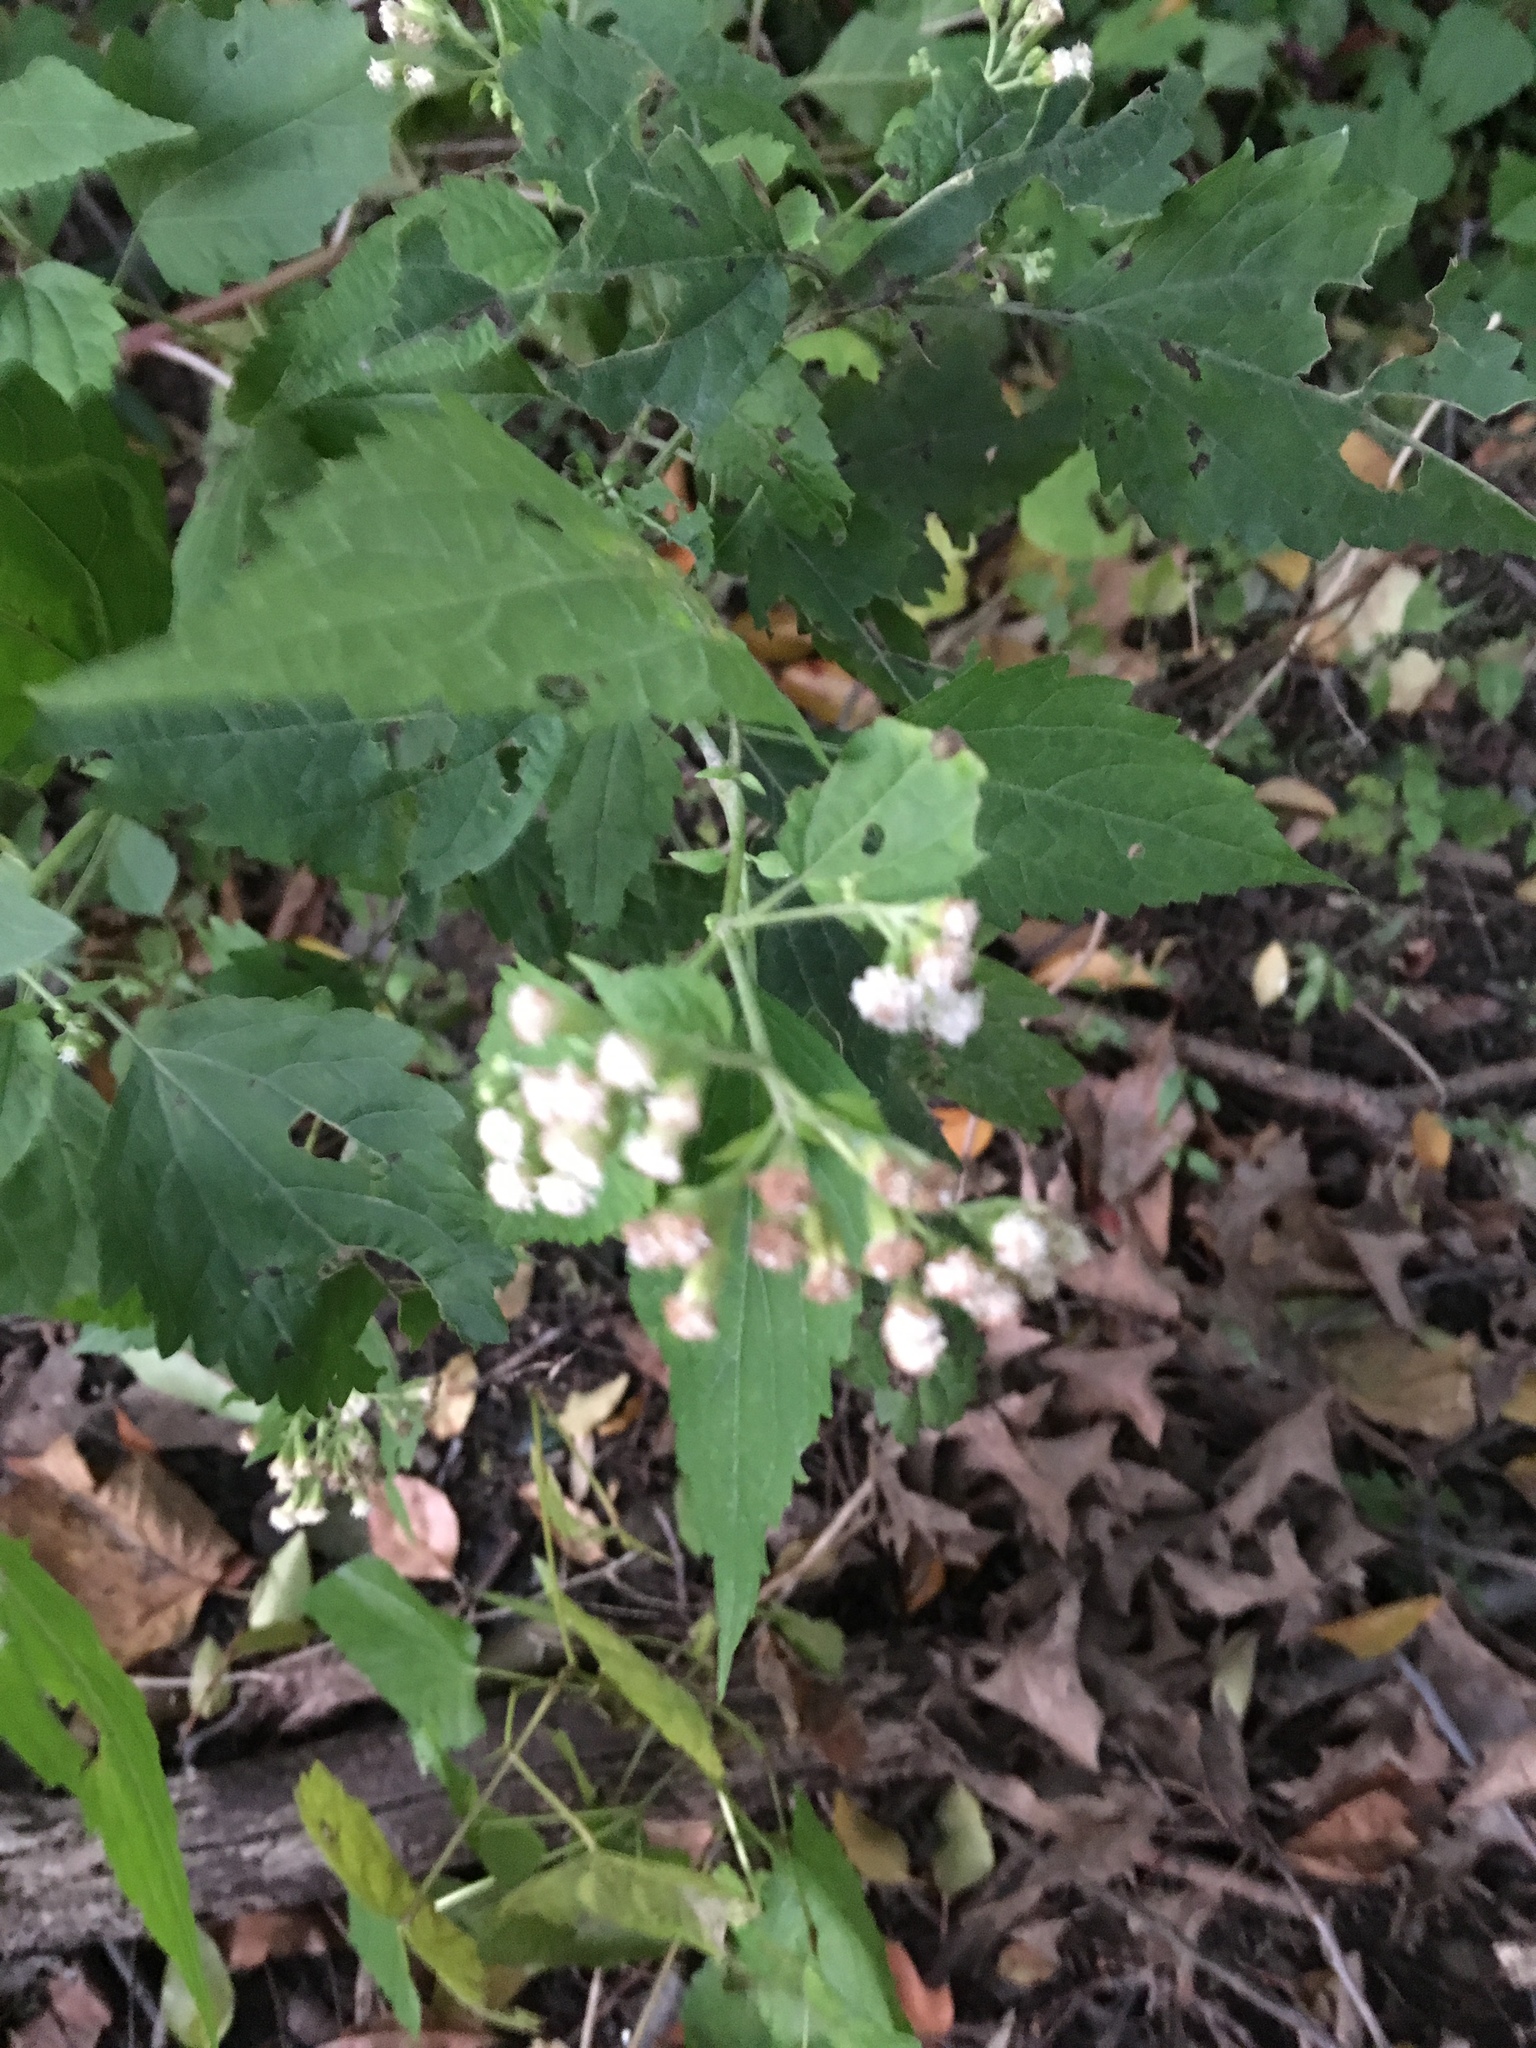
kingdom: Plantae
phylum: Tracheophyta
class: Magnoliopsida
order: Asterales
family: Asteraceae
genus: Ageratina
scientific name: Ageratina altissima
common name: White snakeroot
